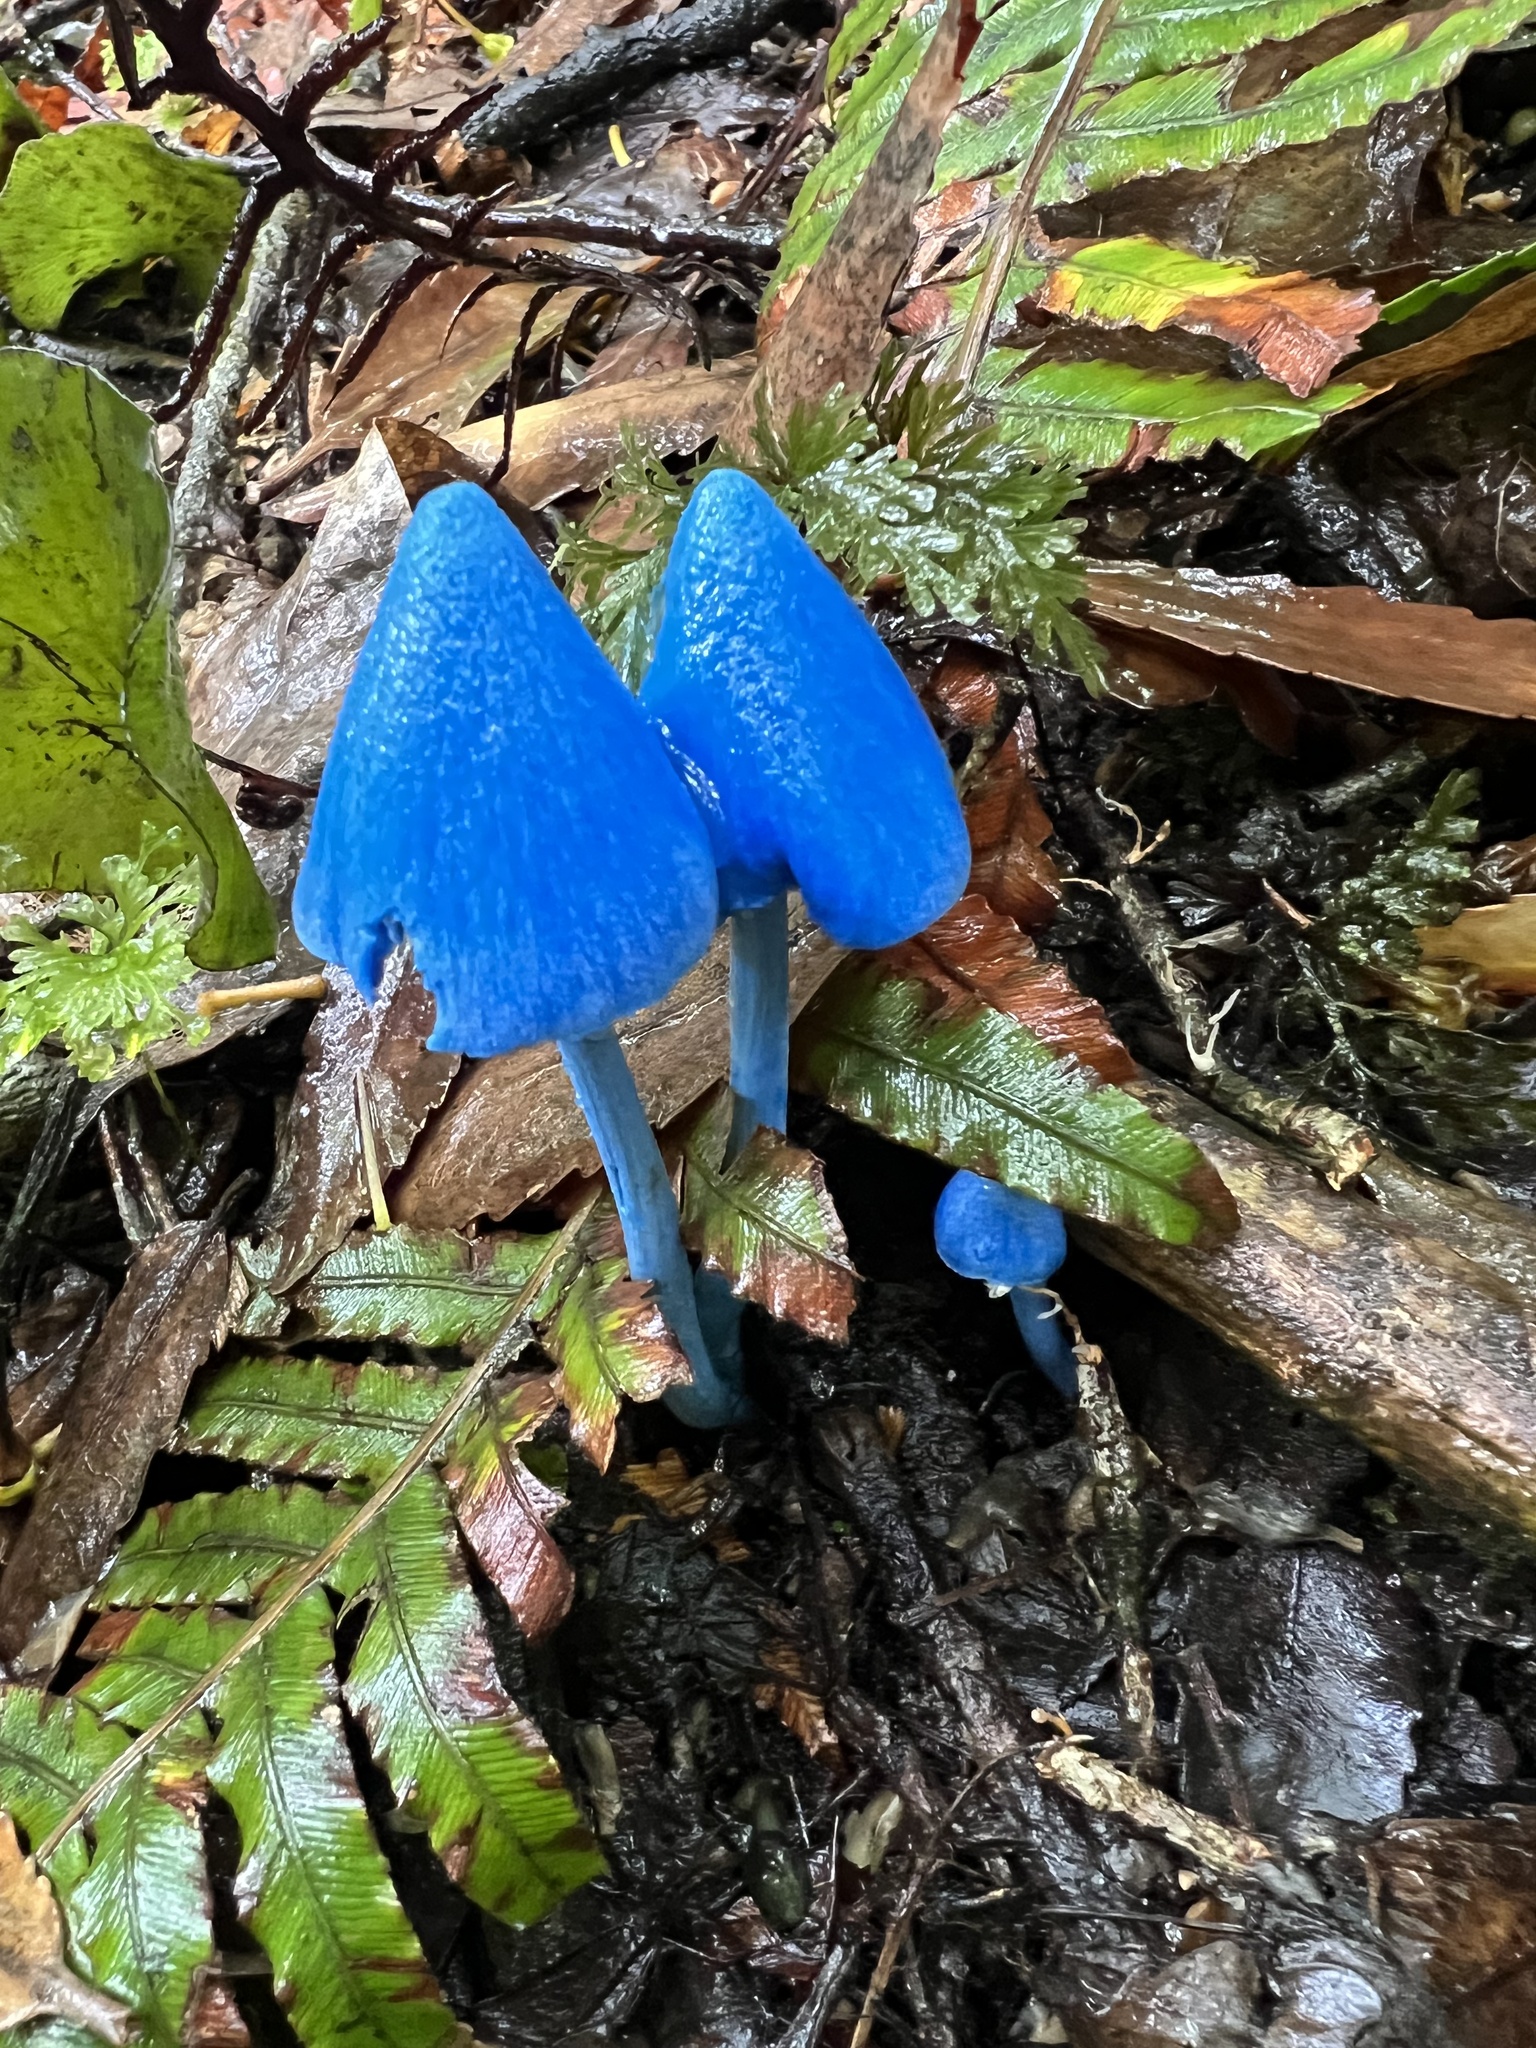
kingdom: Fungi
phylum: Basidiomycota
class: Agaricomycetes
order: Agaricales
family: Entolomataceae
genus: Entoloma
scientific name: Entoloma hochstetteri
